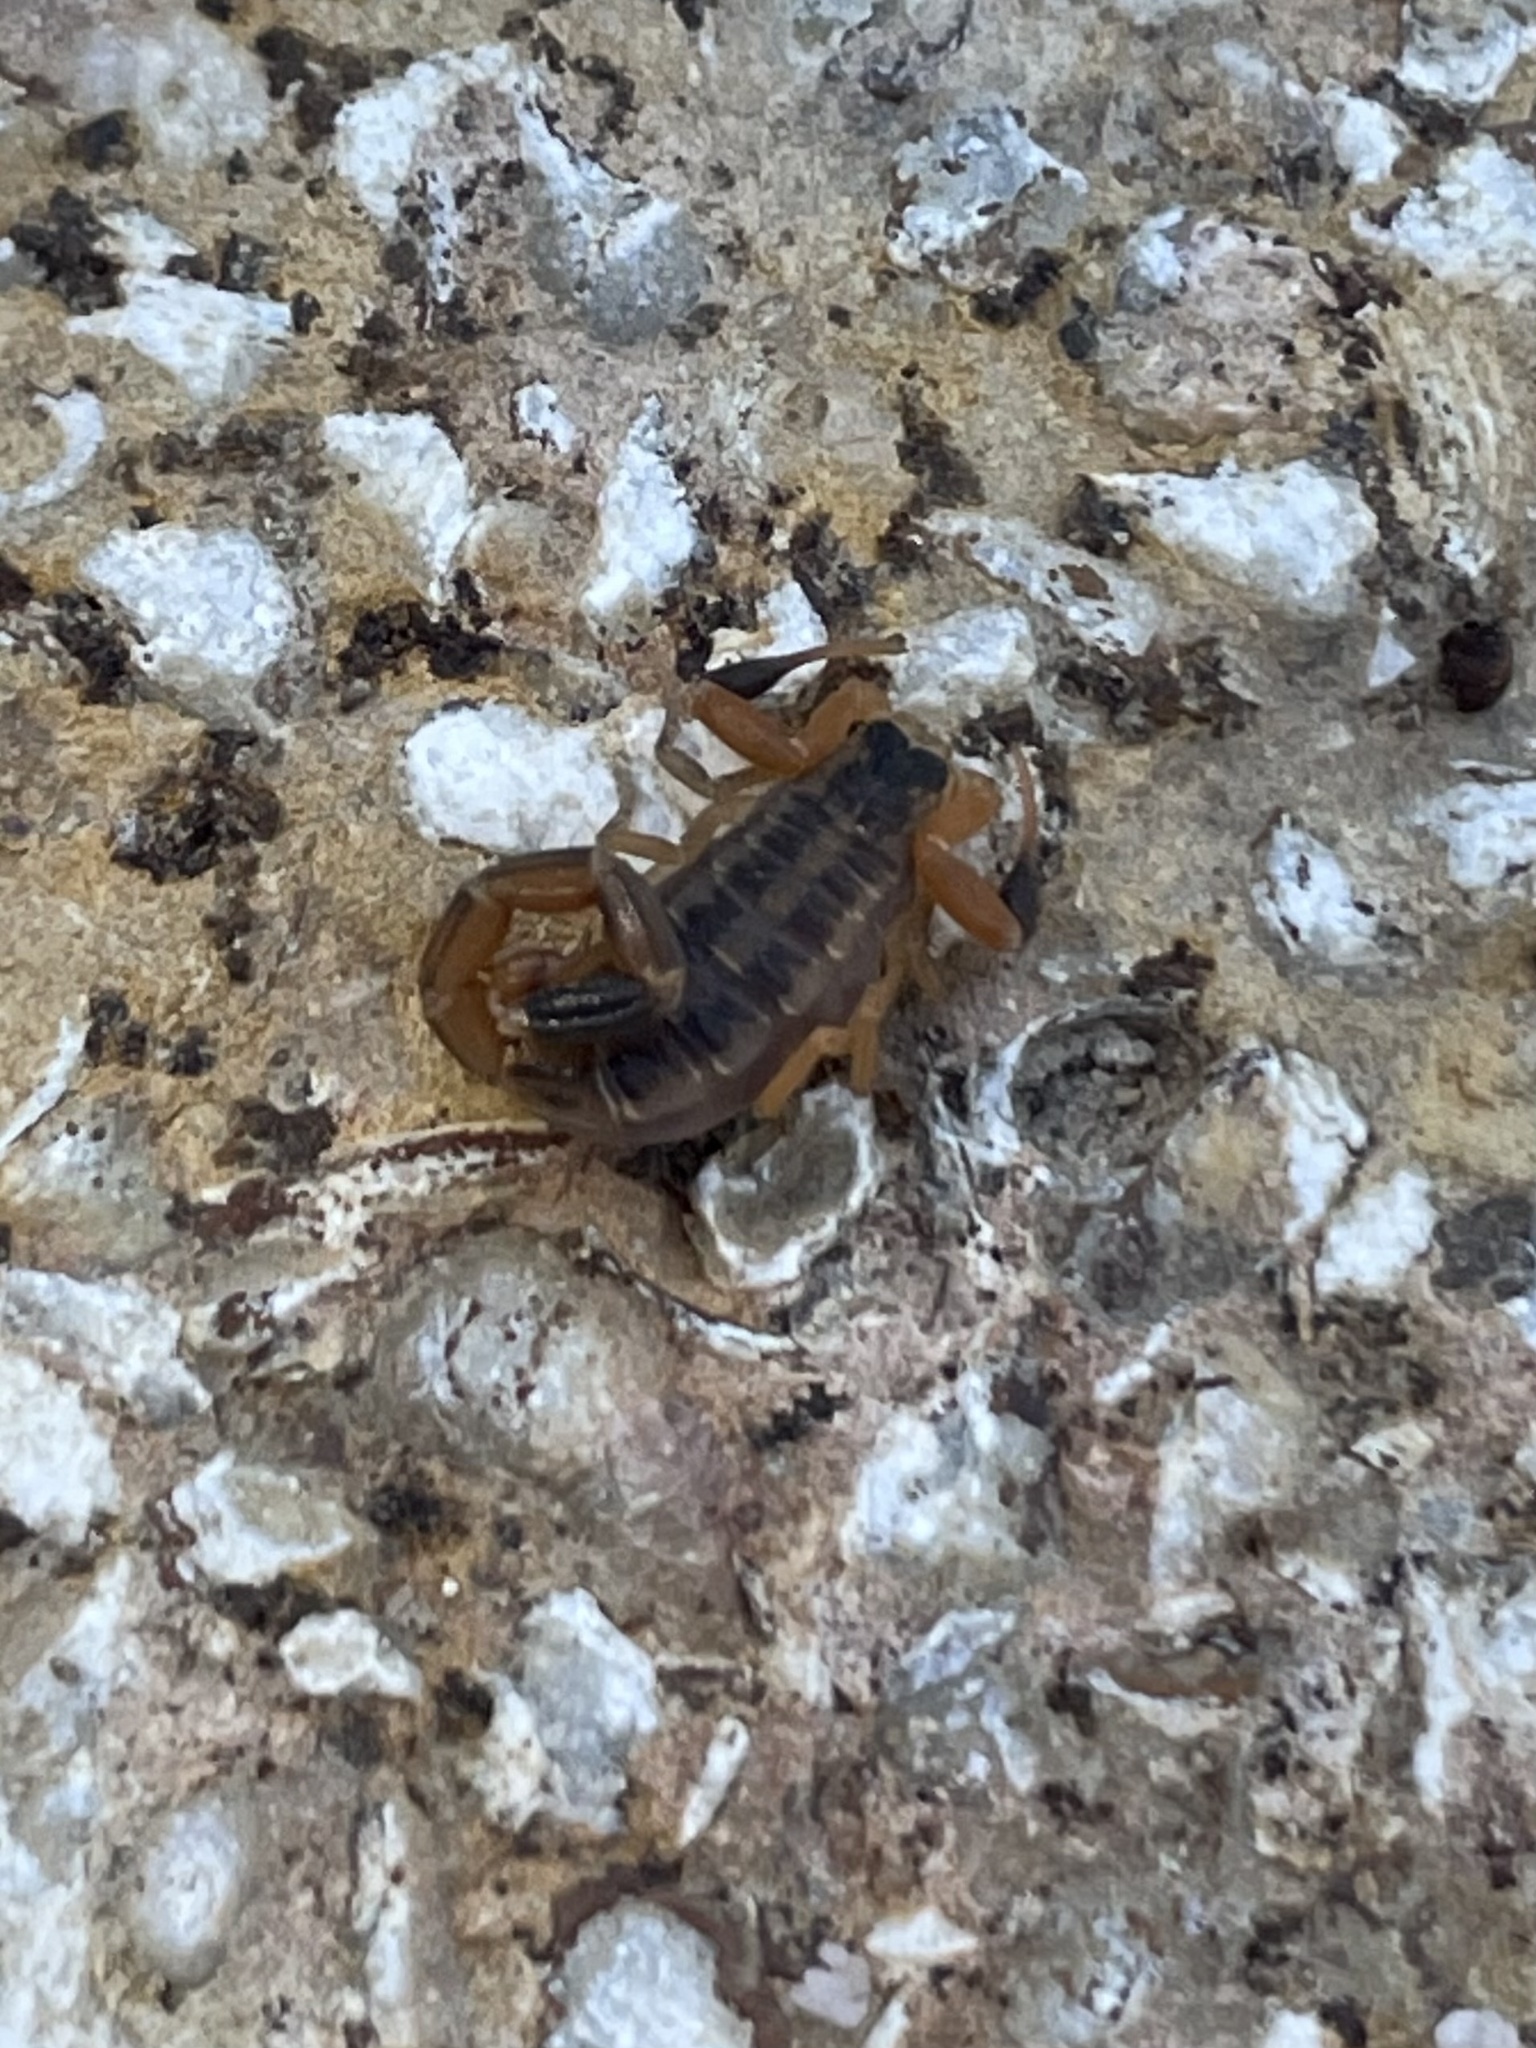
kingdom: Animalia
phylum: Arthropoda
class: Arachnida
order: Scorpiones
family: Buthidae
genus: Centruroides
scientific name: Centruroides vittatus
